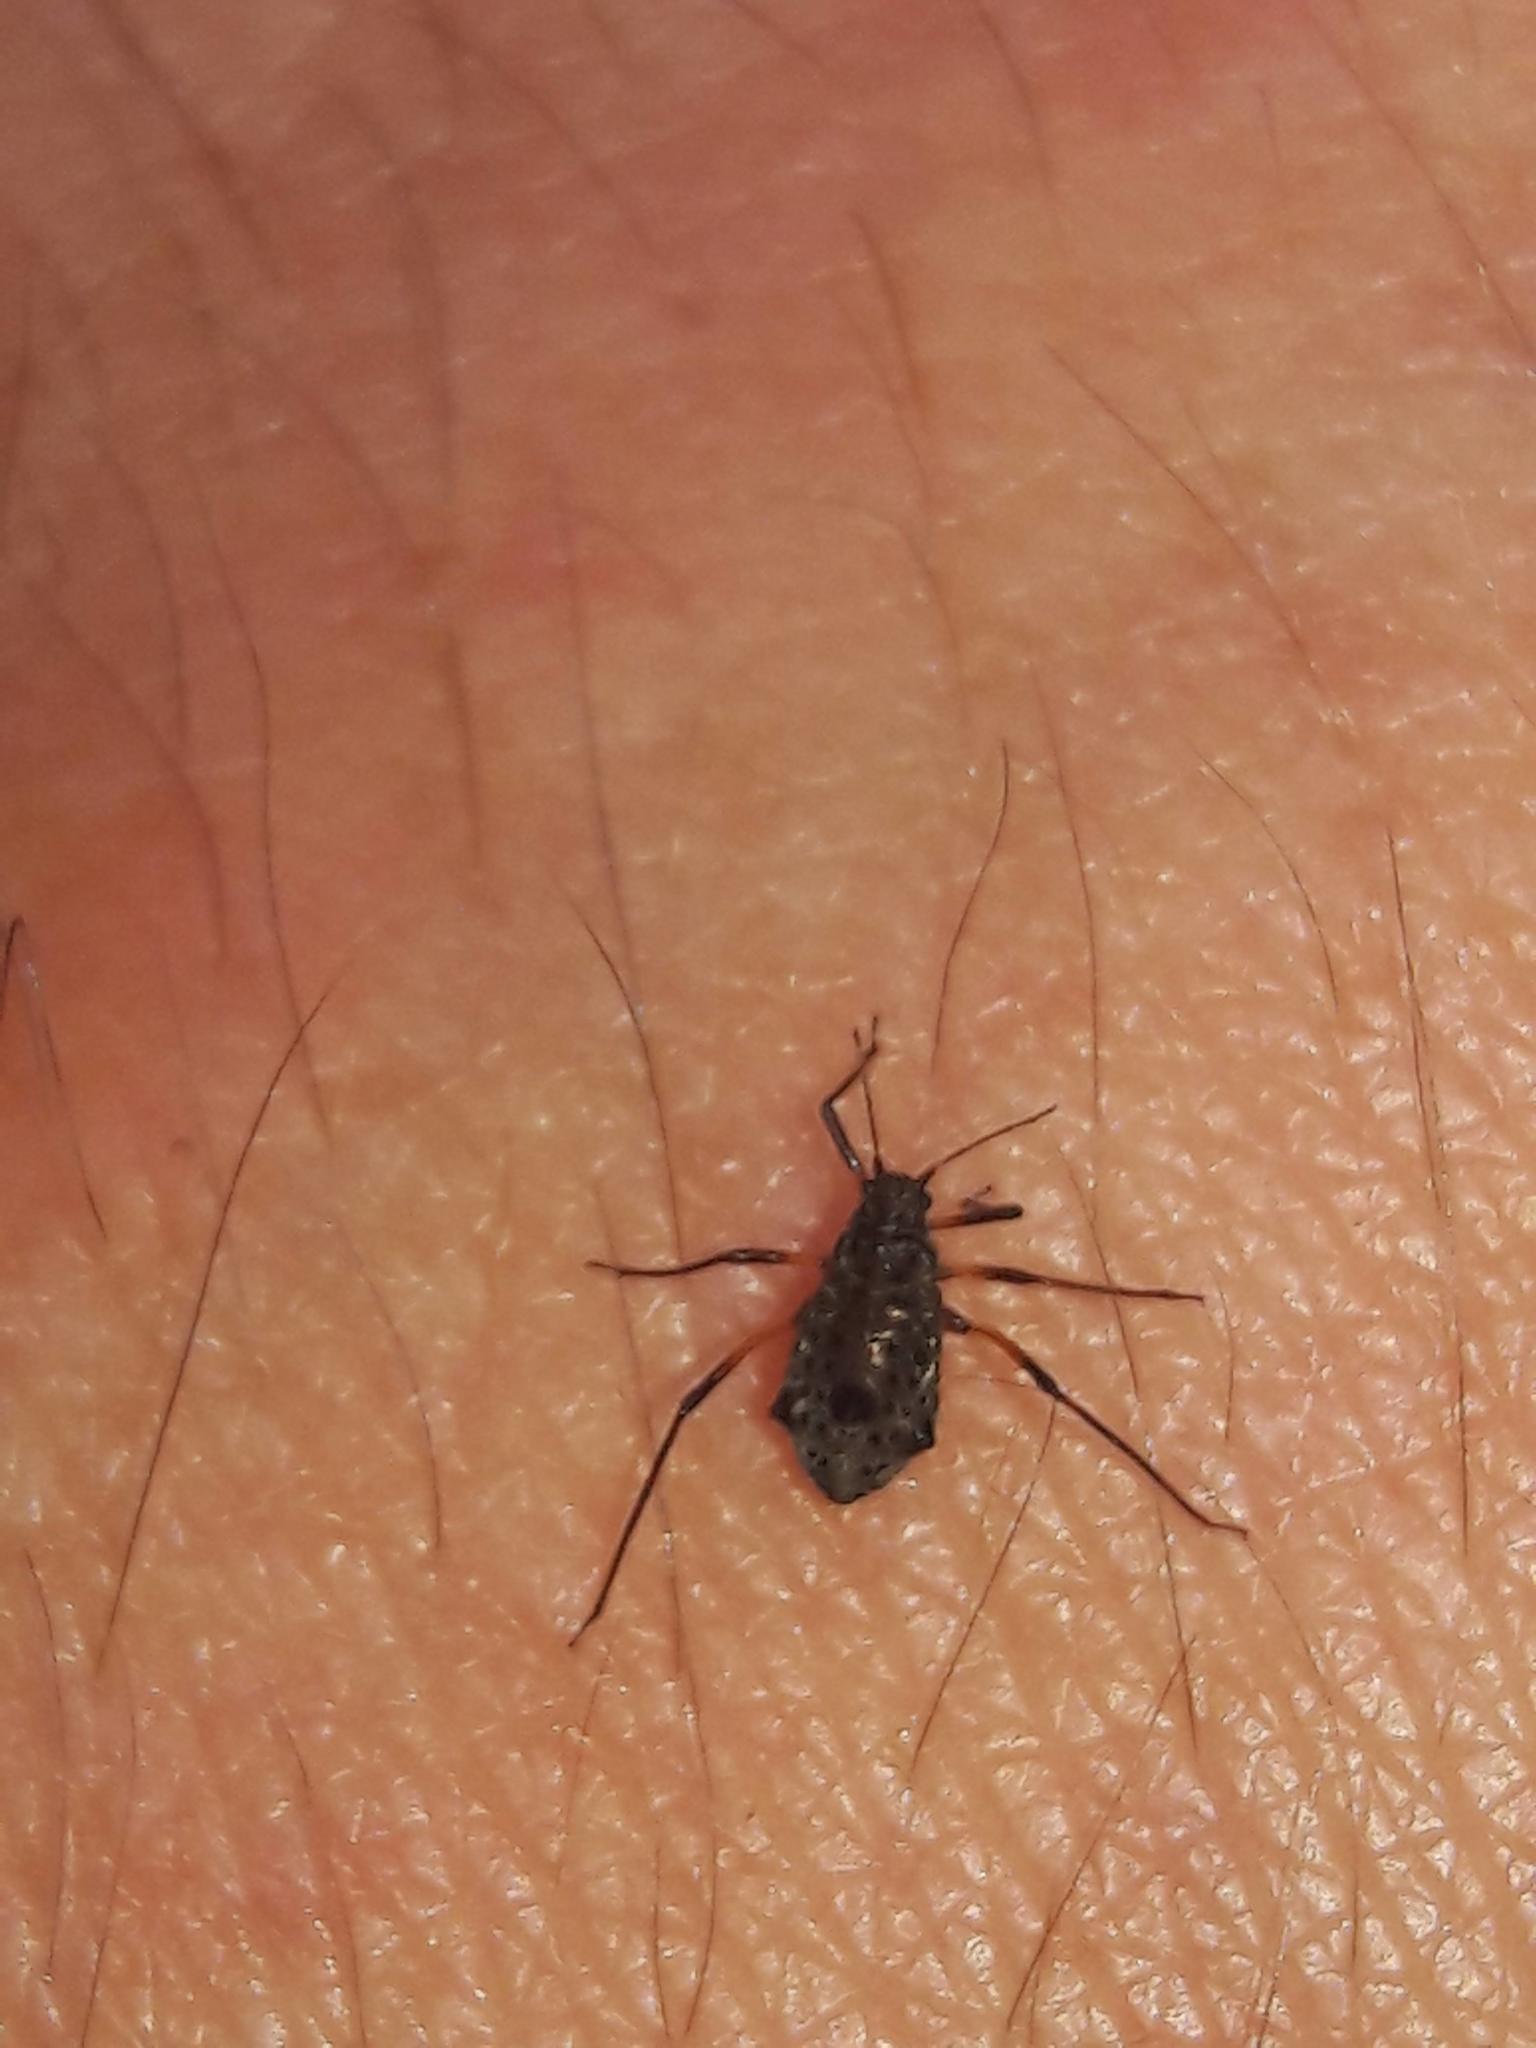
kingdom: Animalia
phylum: Arthropoda
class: Insecta
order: Hemiptera
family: Aphididae
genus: Tuberolachnus
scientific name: Tuberolachnus salignus
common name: Giant willow aphid
